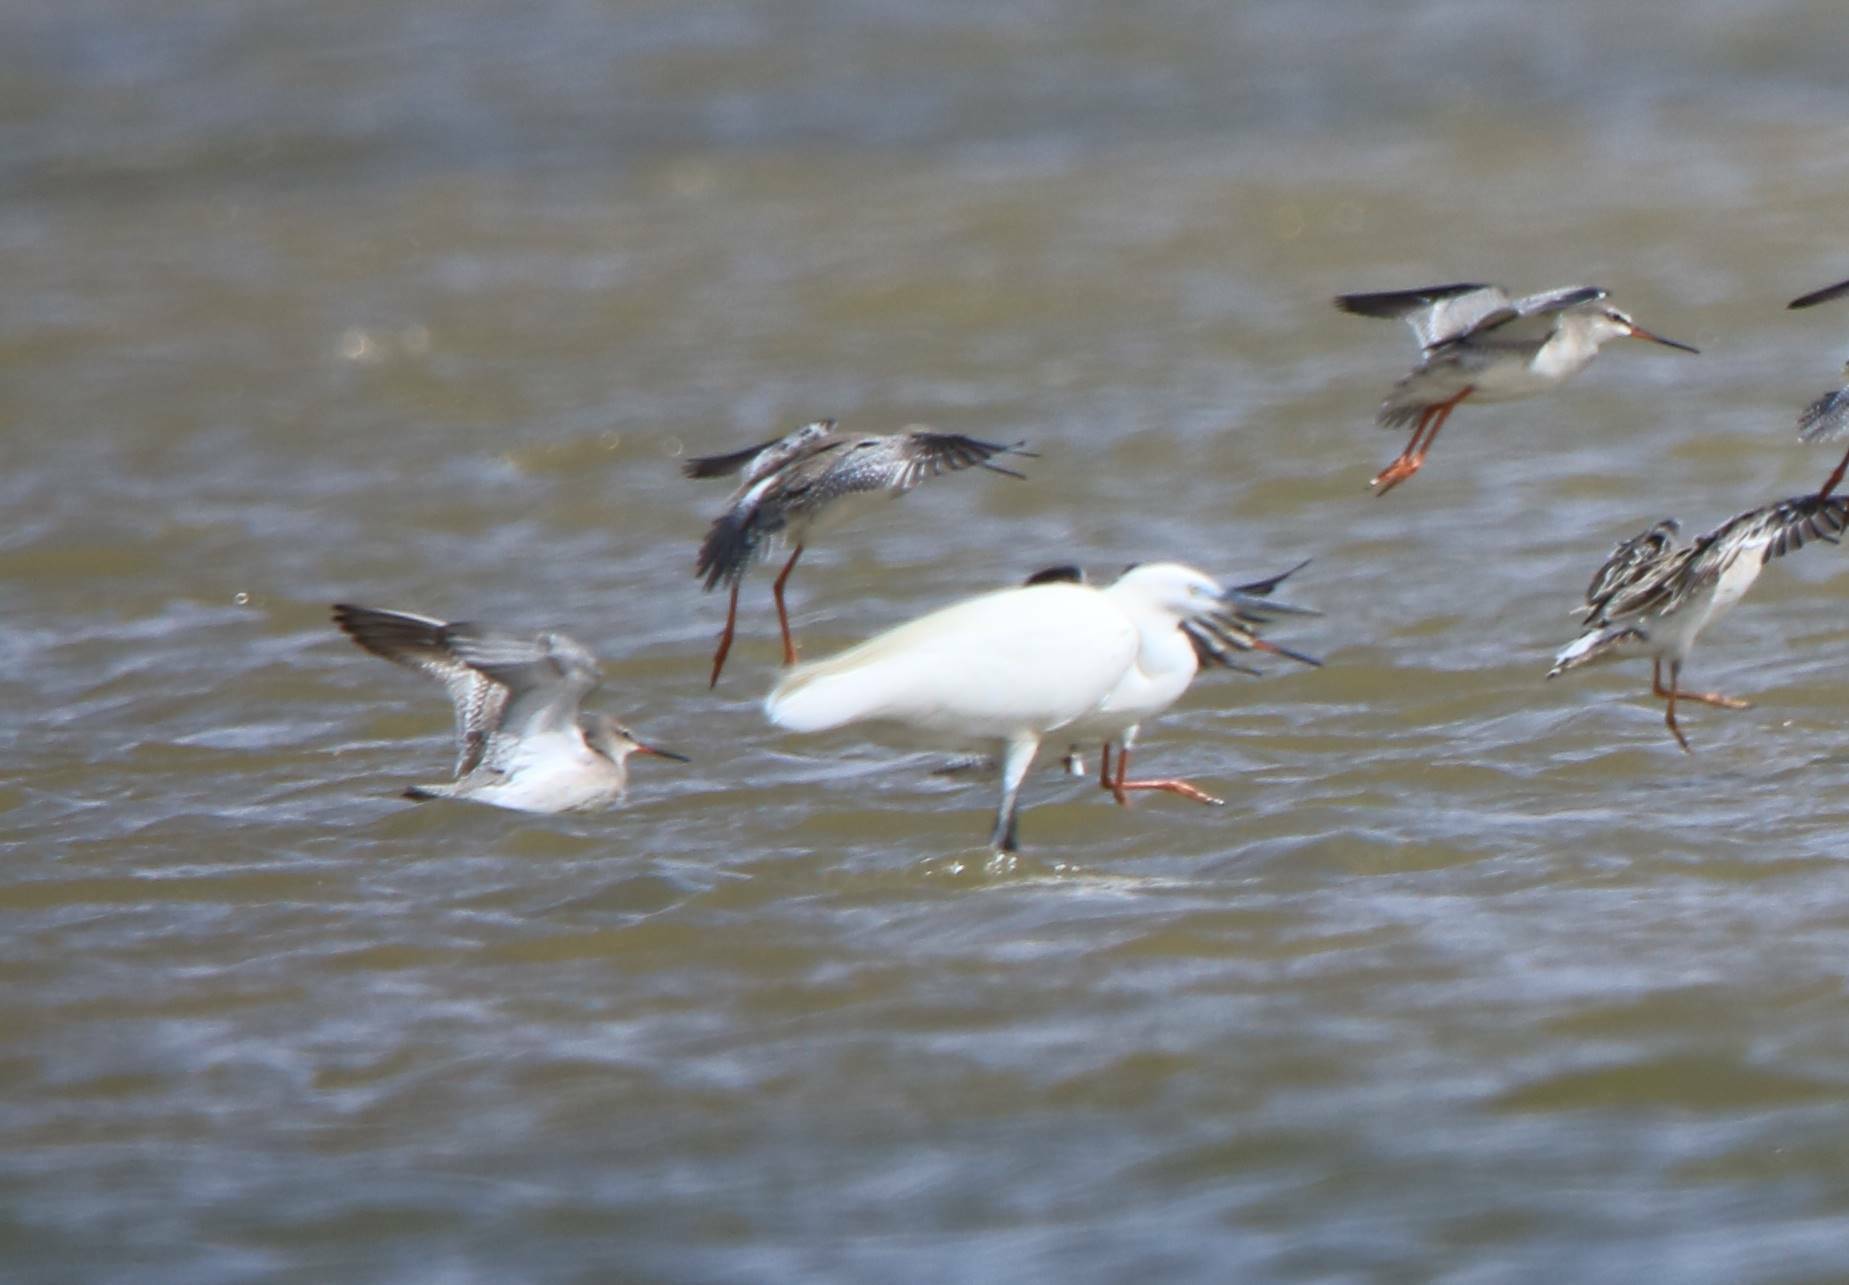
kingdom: Animalia
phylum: Chordata
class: Aves
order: Charadriiformes
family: Scolopacidae
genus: Tringa
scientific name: Tringa erythropus
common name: Spotted redshank
